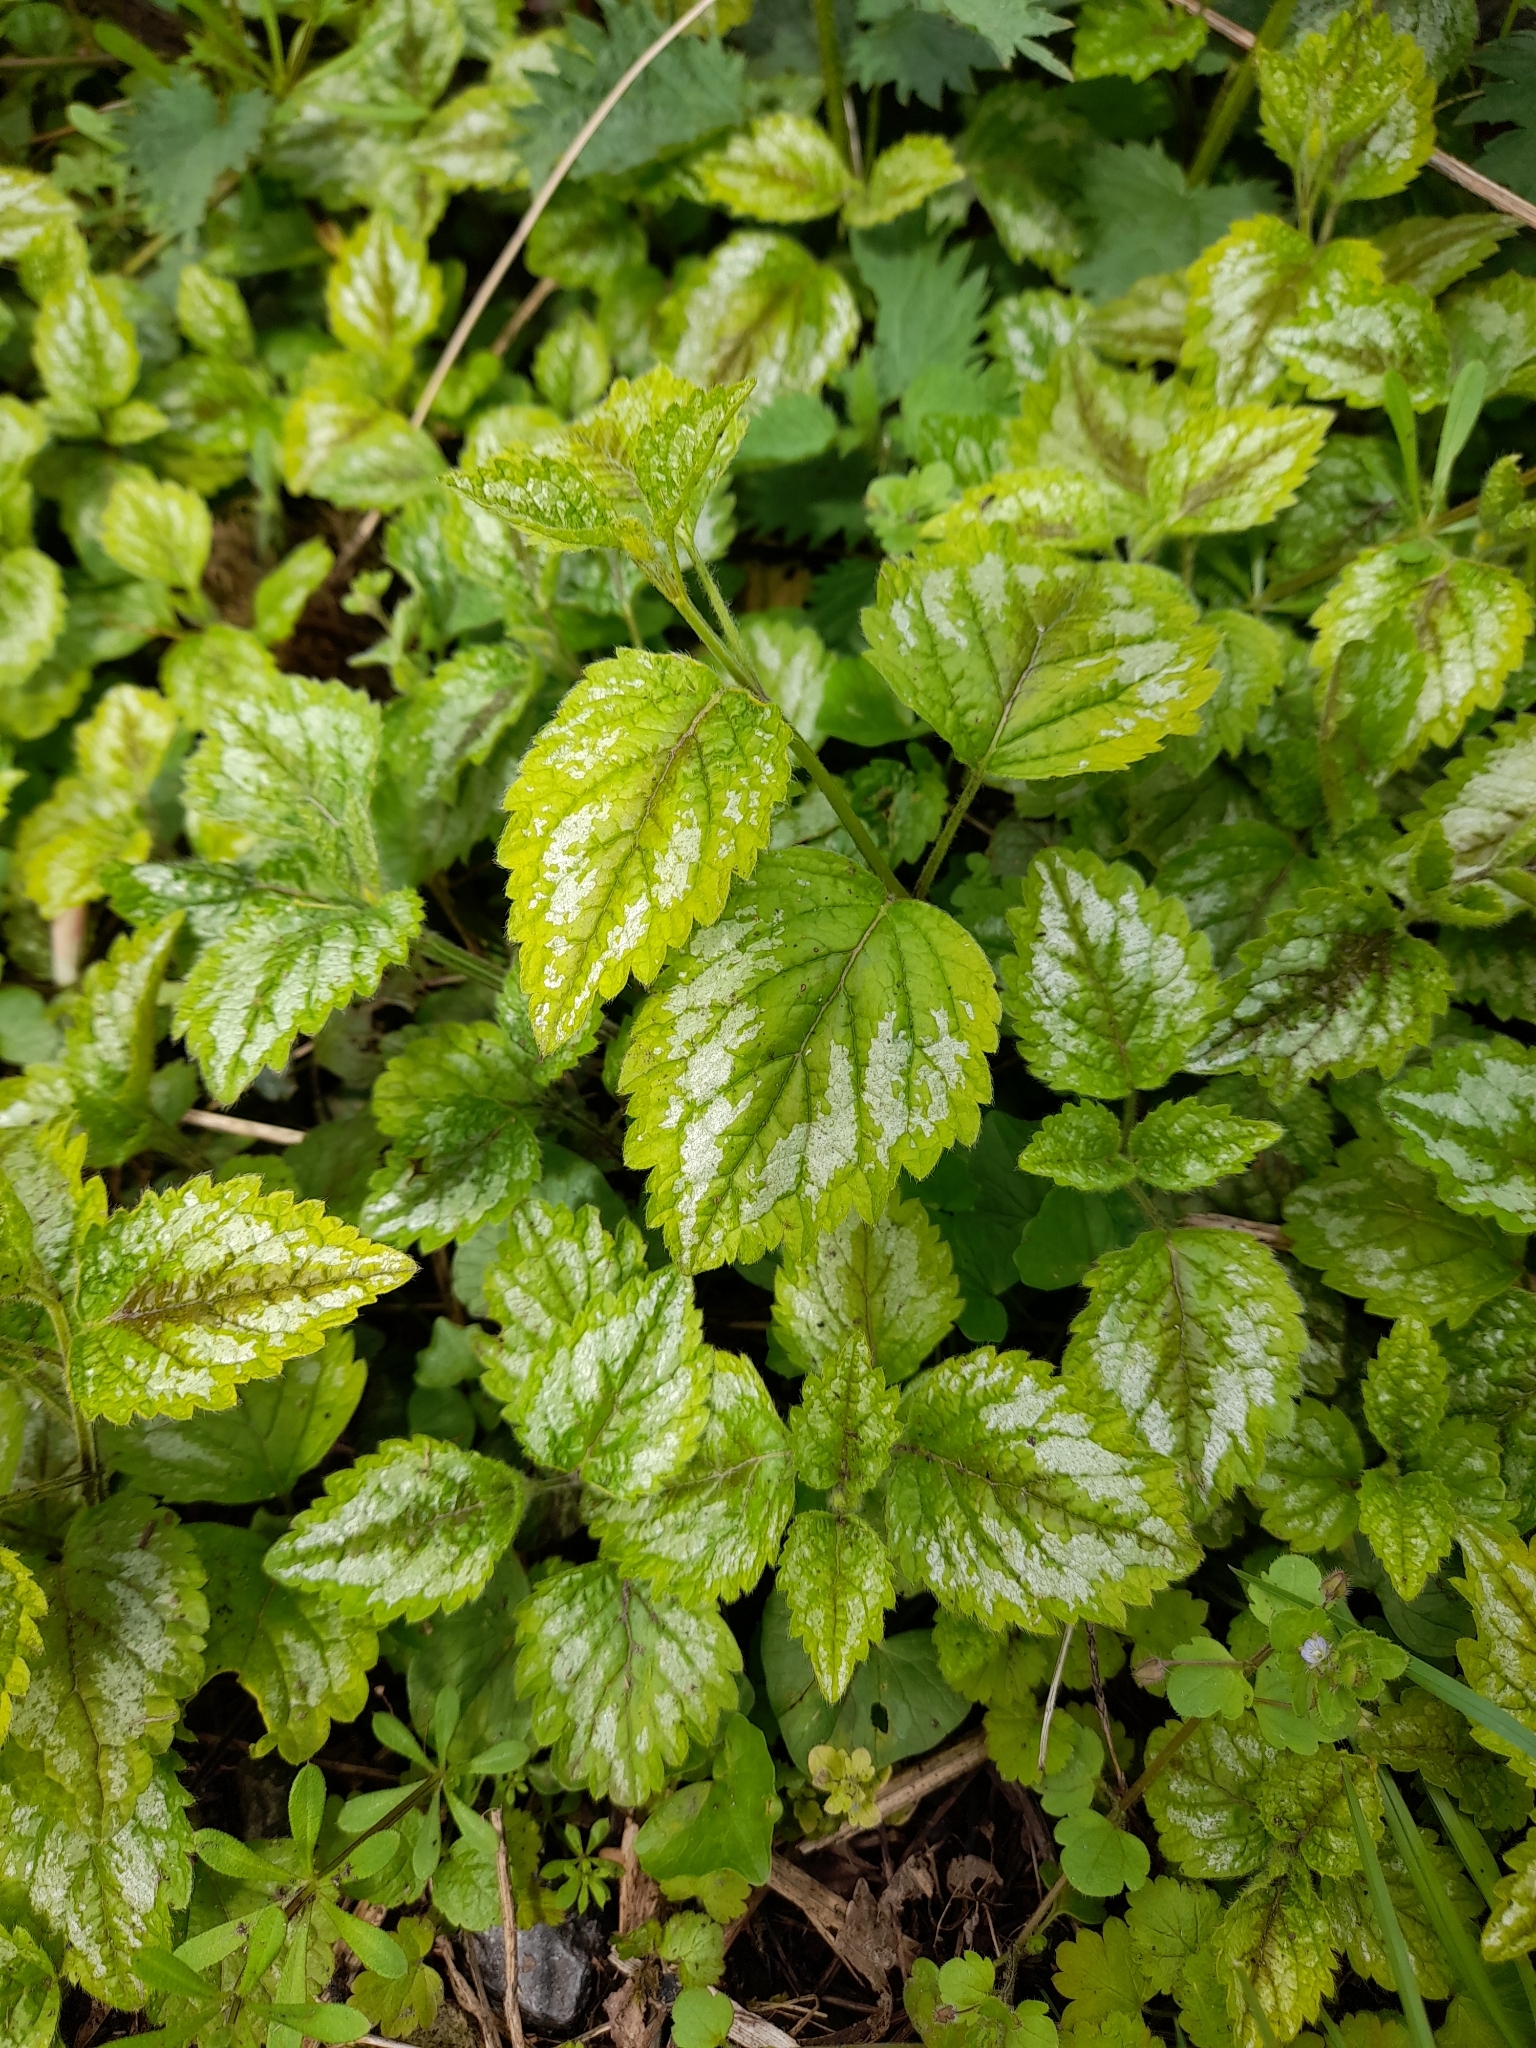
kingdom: Plantae
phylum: Tracheophyta
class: Magnoliopsida
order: Lamiales
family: Lamiaceae
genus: Lamium
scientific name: Lamium galeobdolon
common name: Yellow archangel
